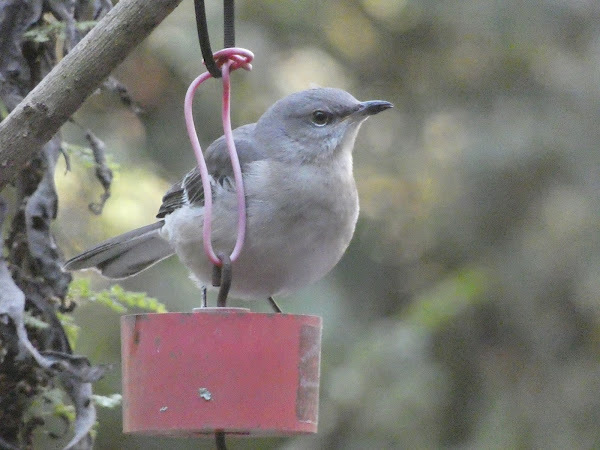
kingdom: Animalia
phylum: Chordata
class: Aves
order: Passeriformes
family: Mimidae
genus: Mimus
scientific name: Mimus polyglottos
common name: Northern mockingbird
